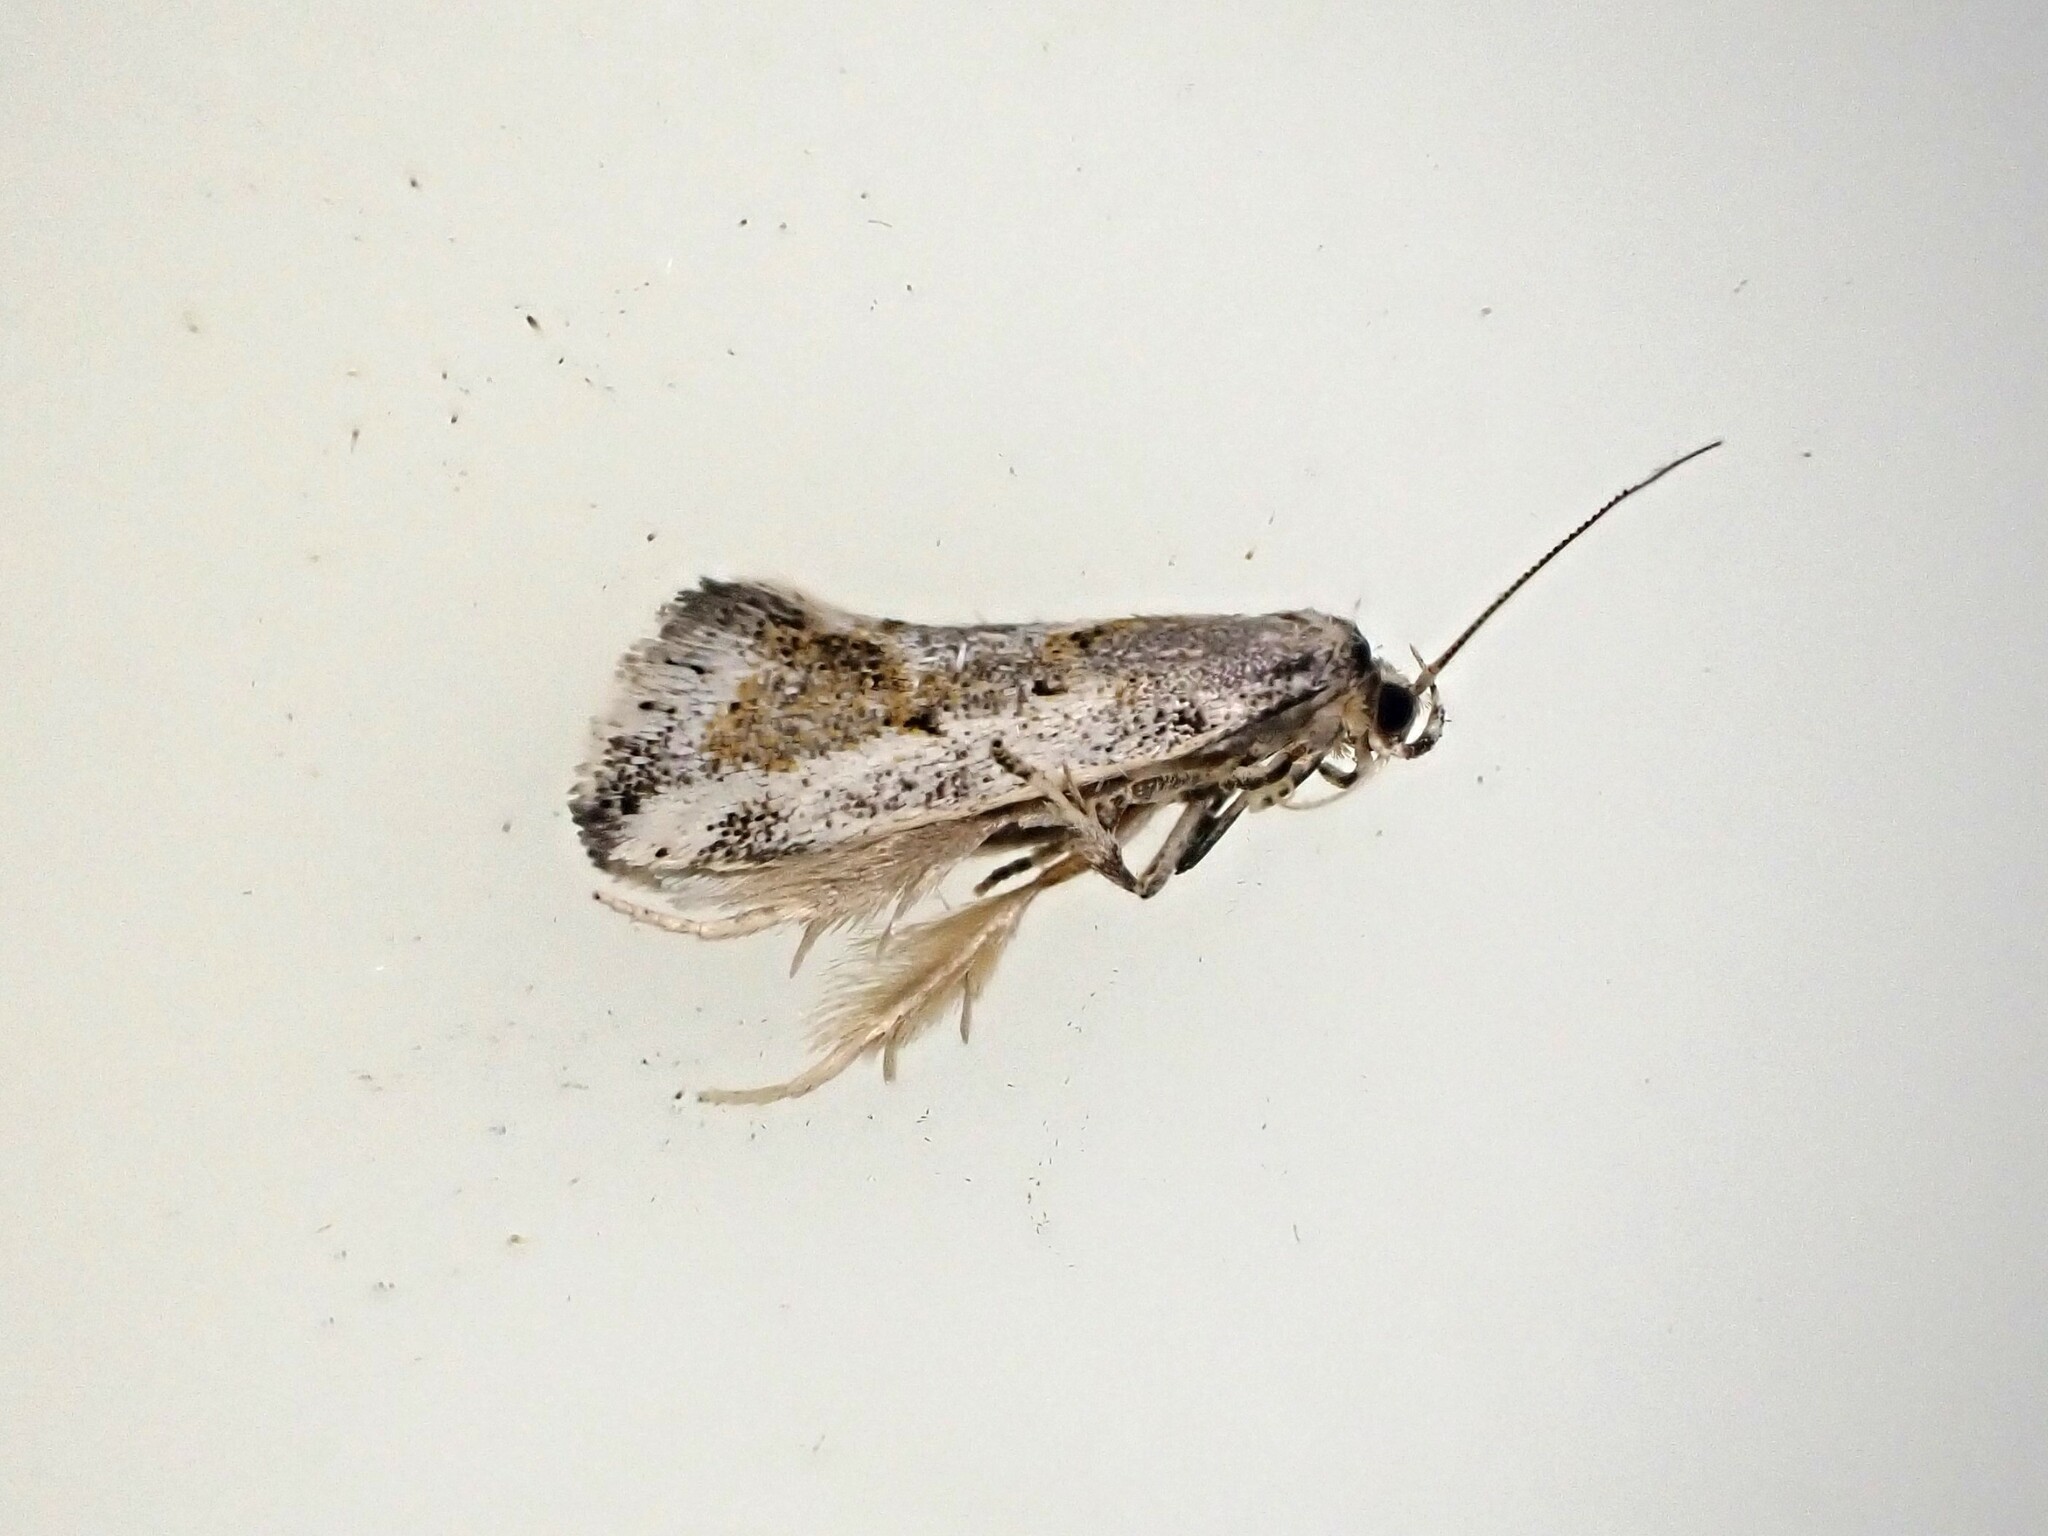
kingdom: Animalia
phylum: Arthropoda
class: Insecta
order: Lepidoptera
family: Oecophoridae
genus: Tingena
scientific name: Tingena hemimochla
